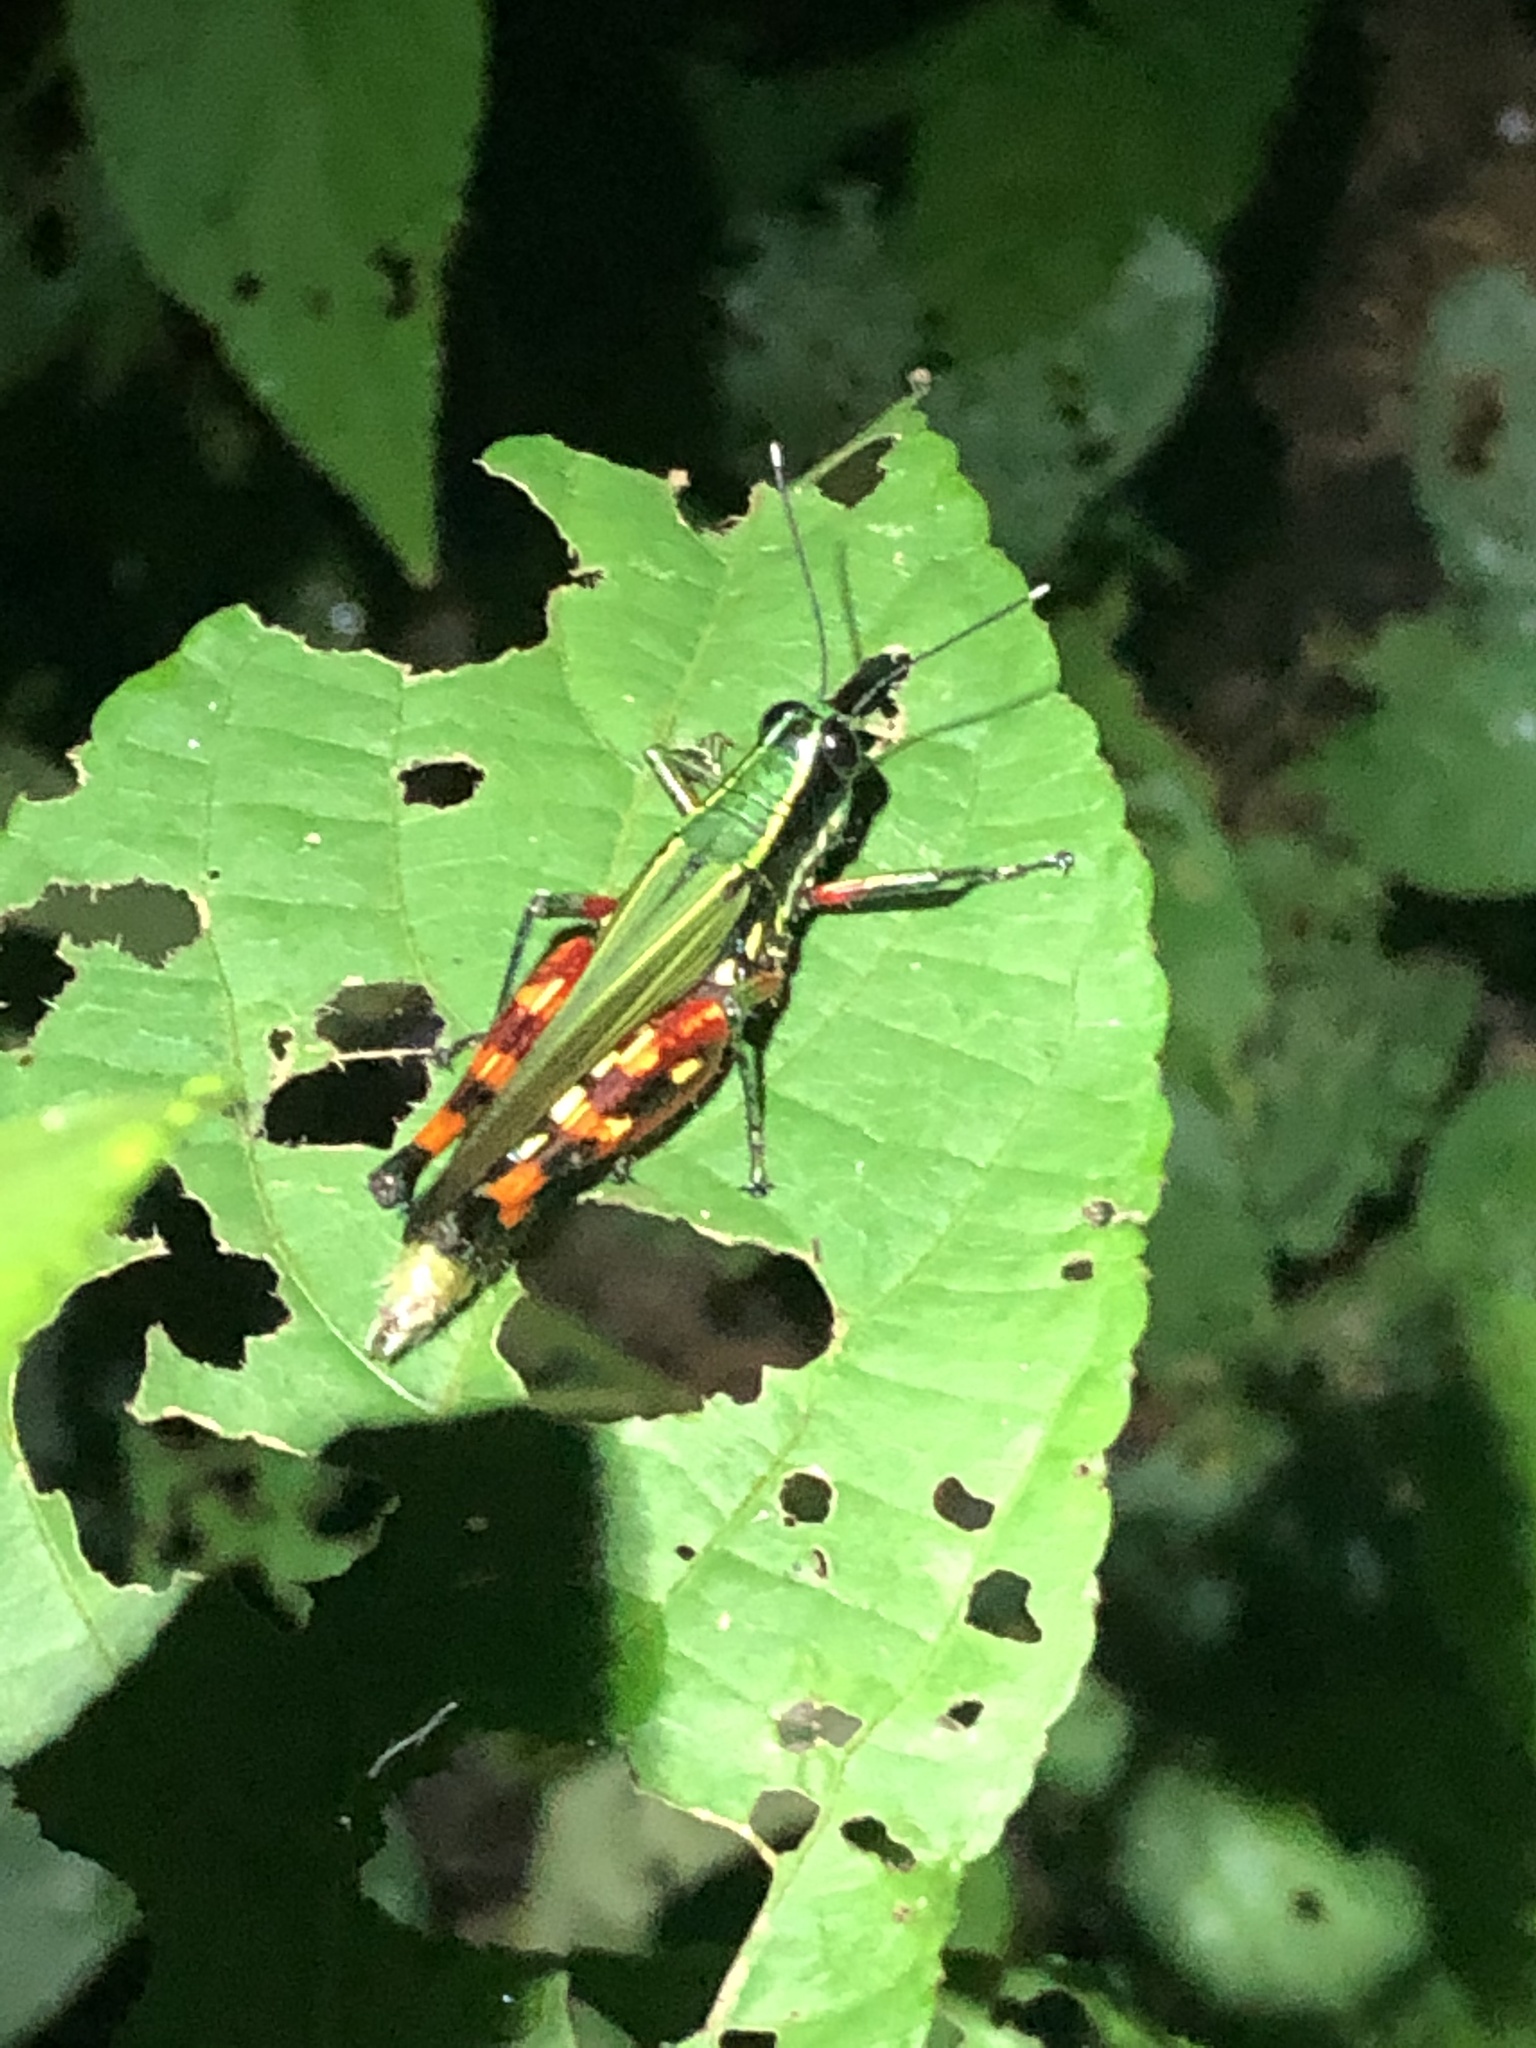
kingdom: Animalia
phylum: Arthropoda
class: Insecta
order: Orthoptera
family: Acrididae
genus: Tetrataenia
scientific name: Tetrataenia surinama
